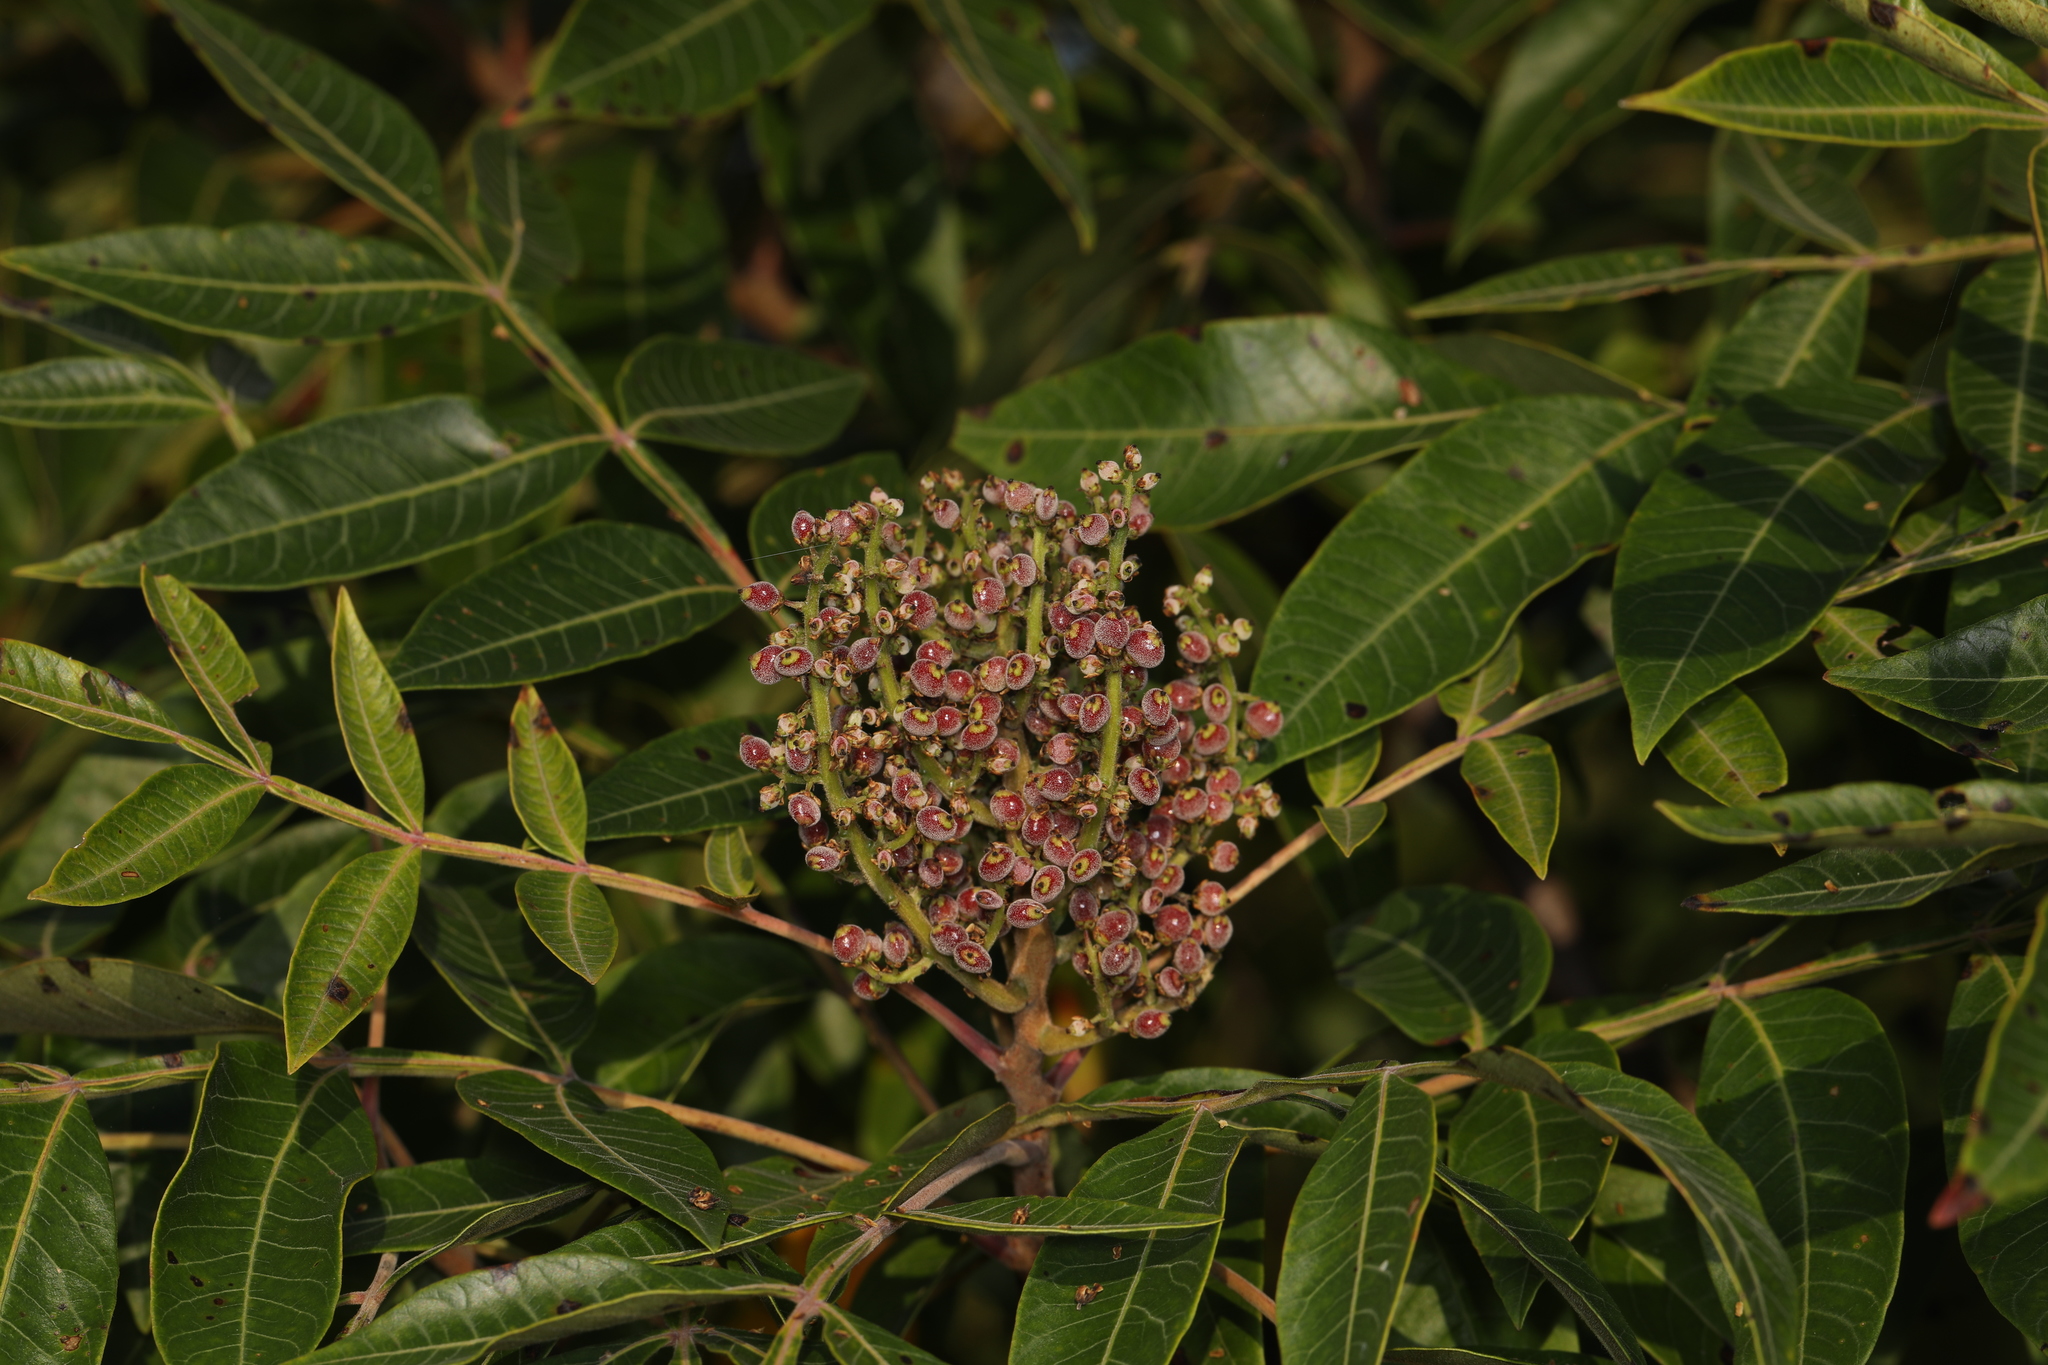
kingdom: Plantae
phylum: Tracheophyta
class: Magnoliopsida
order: Sapindales
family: Anacardiaceae
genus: Rhus
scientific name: Rhus copallina
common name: Shining sumac
